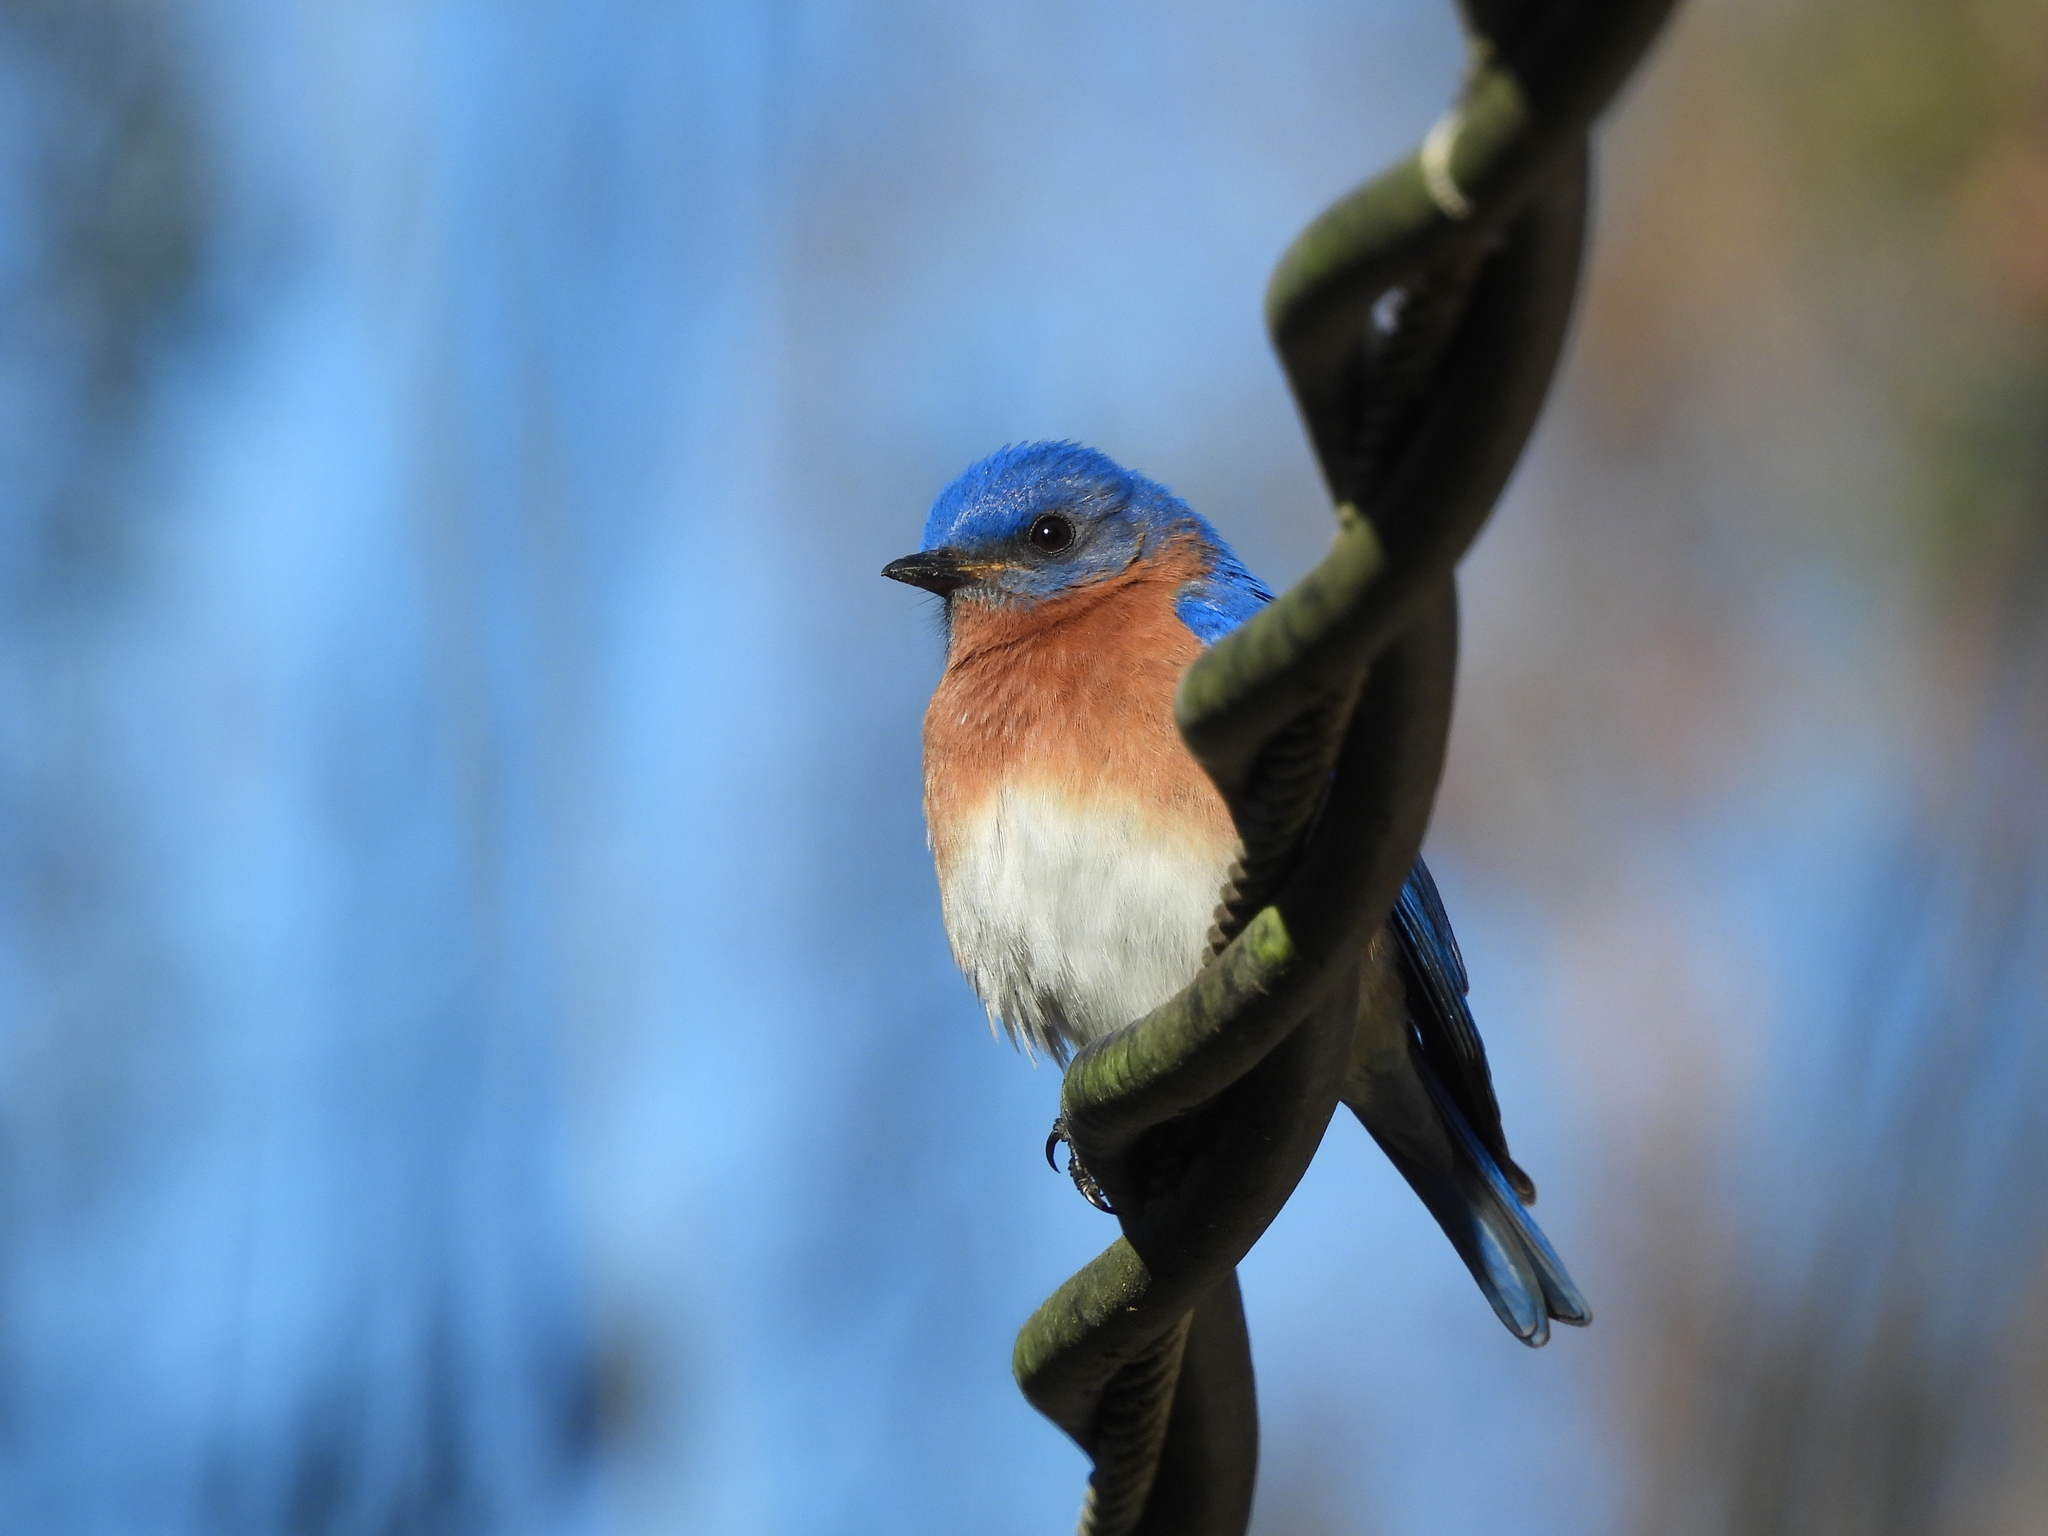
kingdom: Animalia
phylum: Chordata
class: Aves
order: Passeriformes
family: Turdidae
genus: Sialia
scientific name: Sialia sialis
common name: Eastern bluebird
